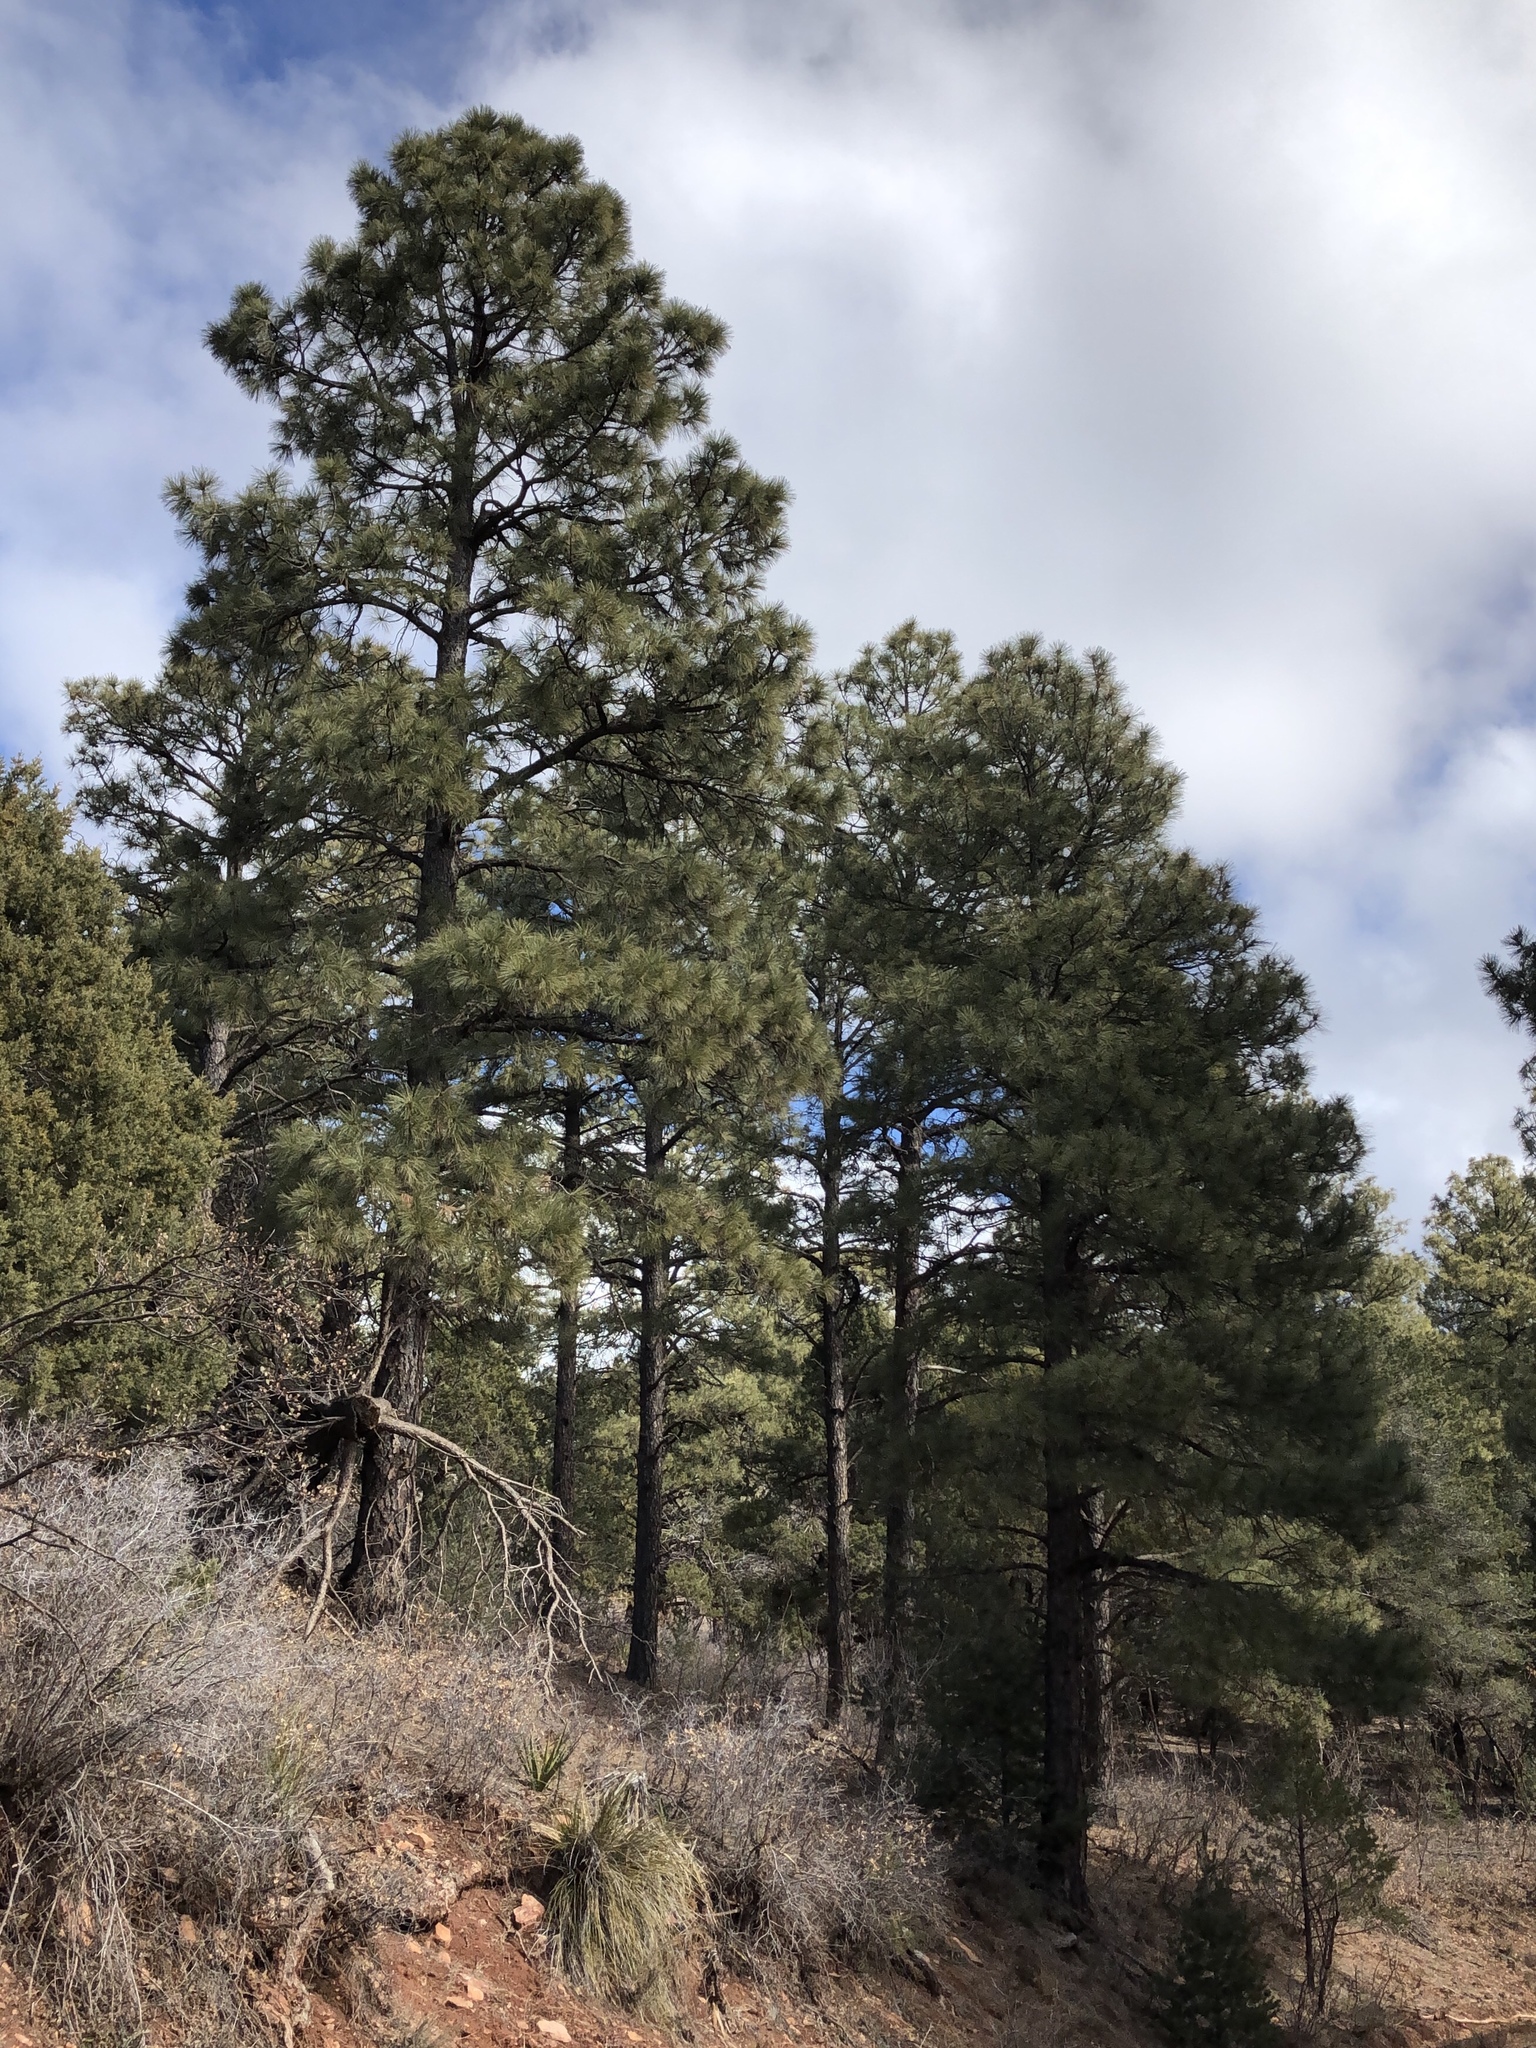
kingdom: Plantae
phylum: Tracheophyta
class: Pinopsida
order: Pinales
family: Pinaceae
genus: Pinus
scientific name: Pinus ponderosa
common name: Western yellow-pine
